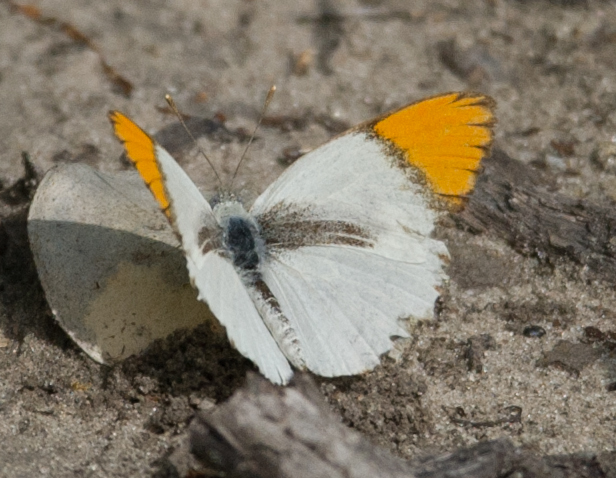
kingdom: Animalia
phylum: Arthropoda
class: Insecta
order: Lepidoptera
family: Pieridae
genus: Colotis
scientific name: Colotis evenina
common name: Common orange tip
